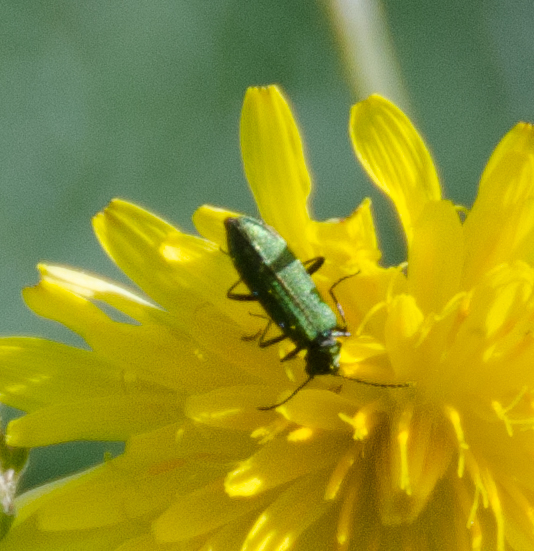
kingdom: Animalia
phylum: Arthropoda
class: Insecta
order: Coleoptera
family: Stenotrachelidae
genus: Stenotrachelus
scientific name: Stenotrachelus aeneus
